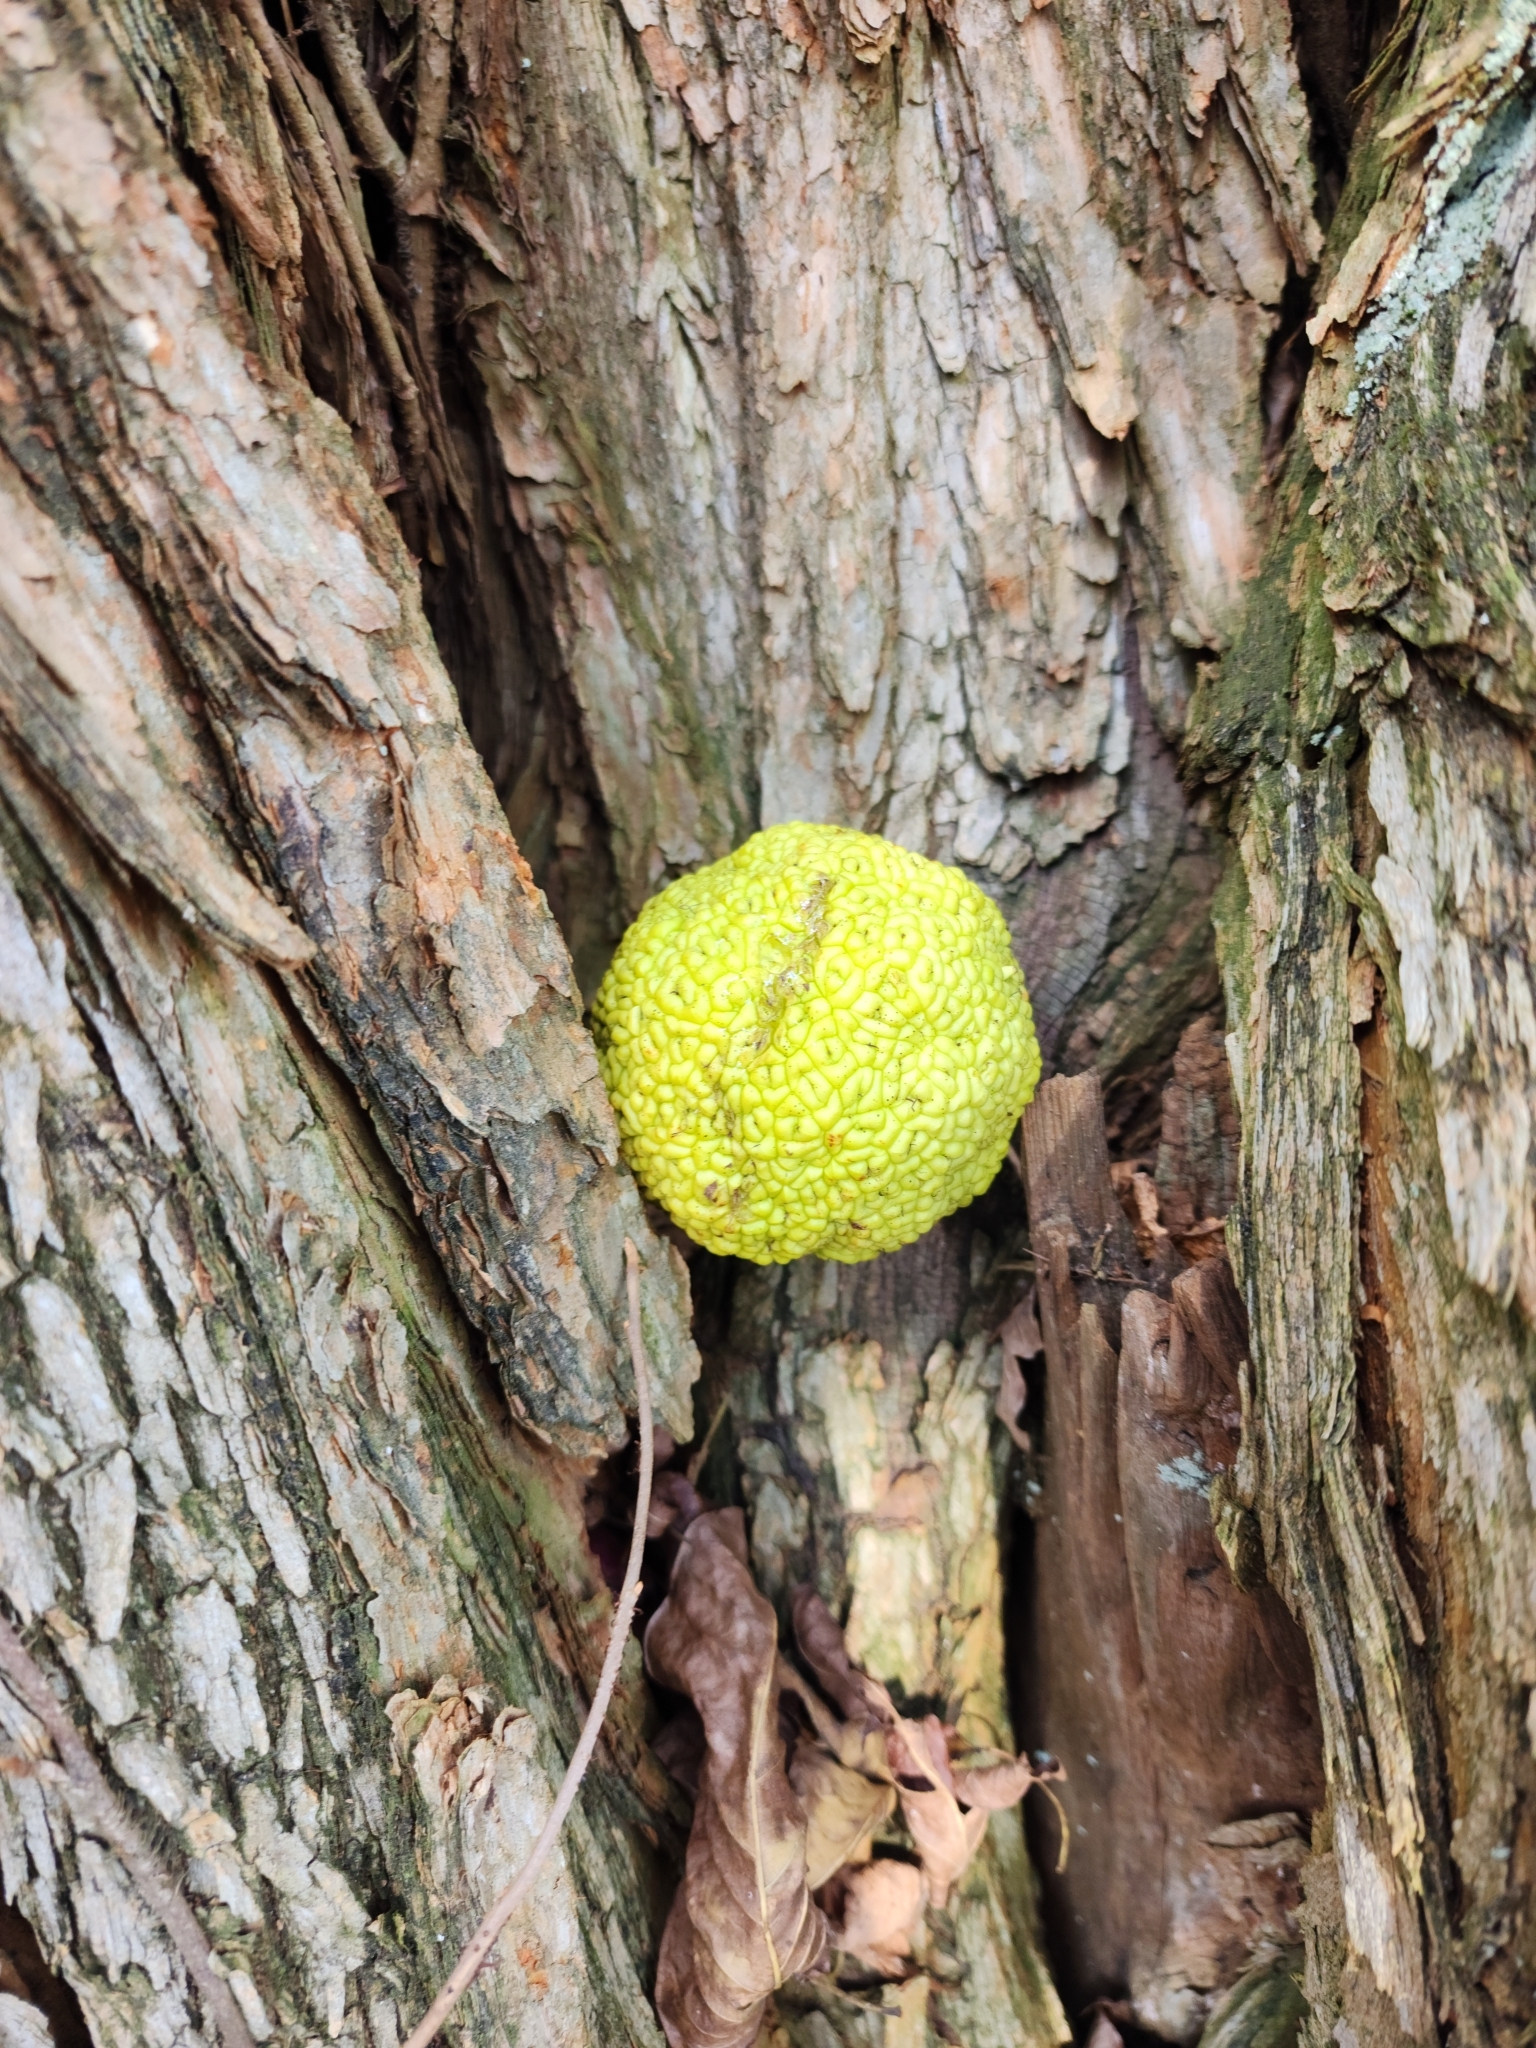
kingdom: Plantae
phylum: Tracheophyta
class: Magnoliopsida
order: Rosales
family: Moraceae
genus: Maclura
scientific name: Maclura pomifera
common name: Osage-orange
